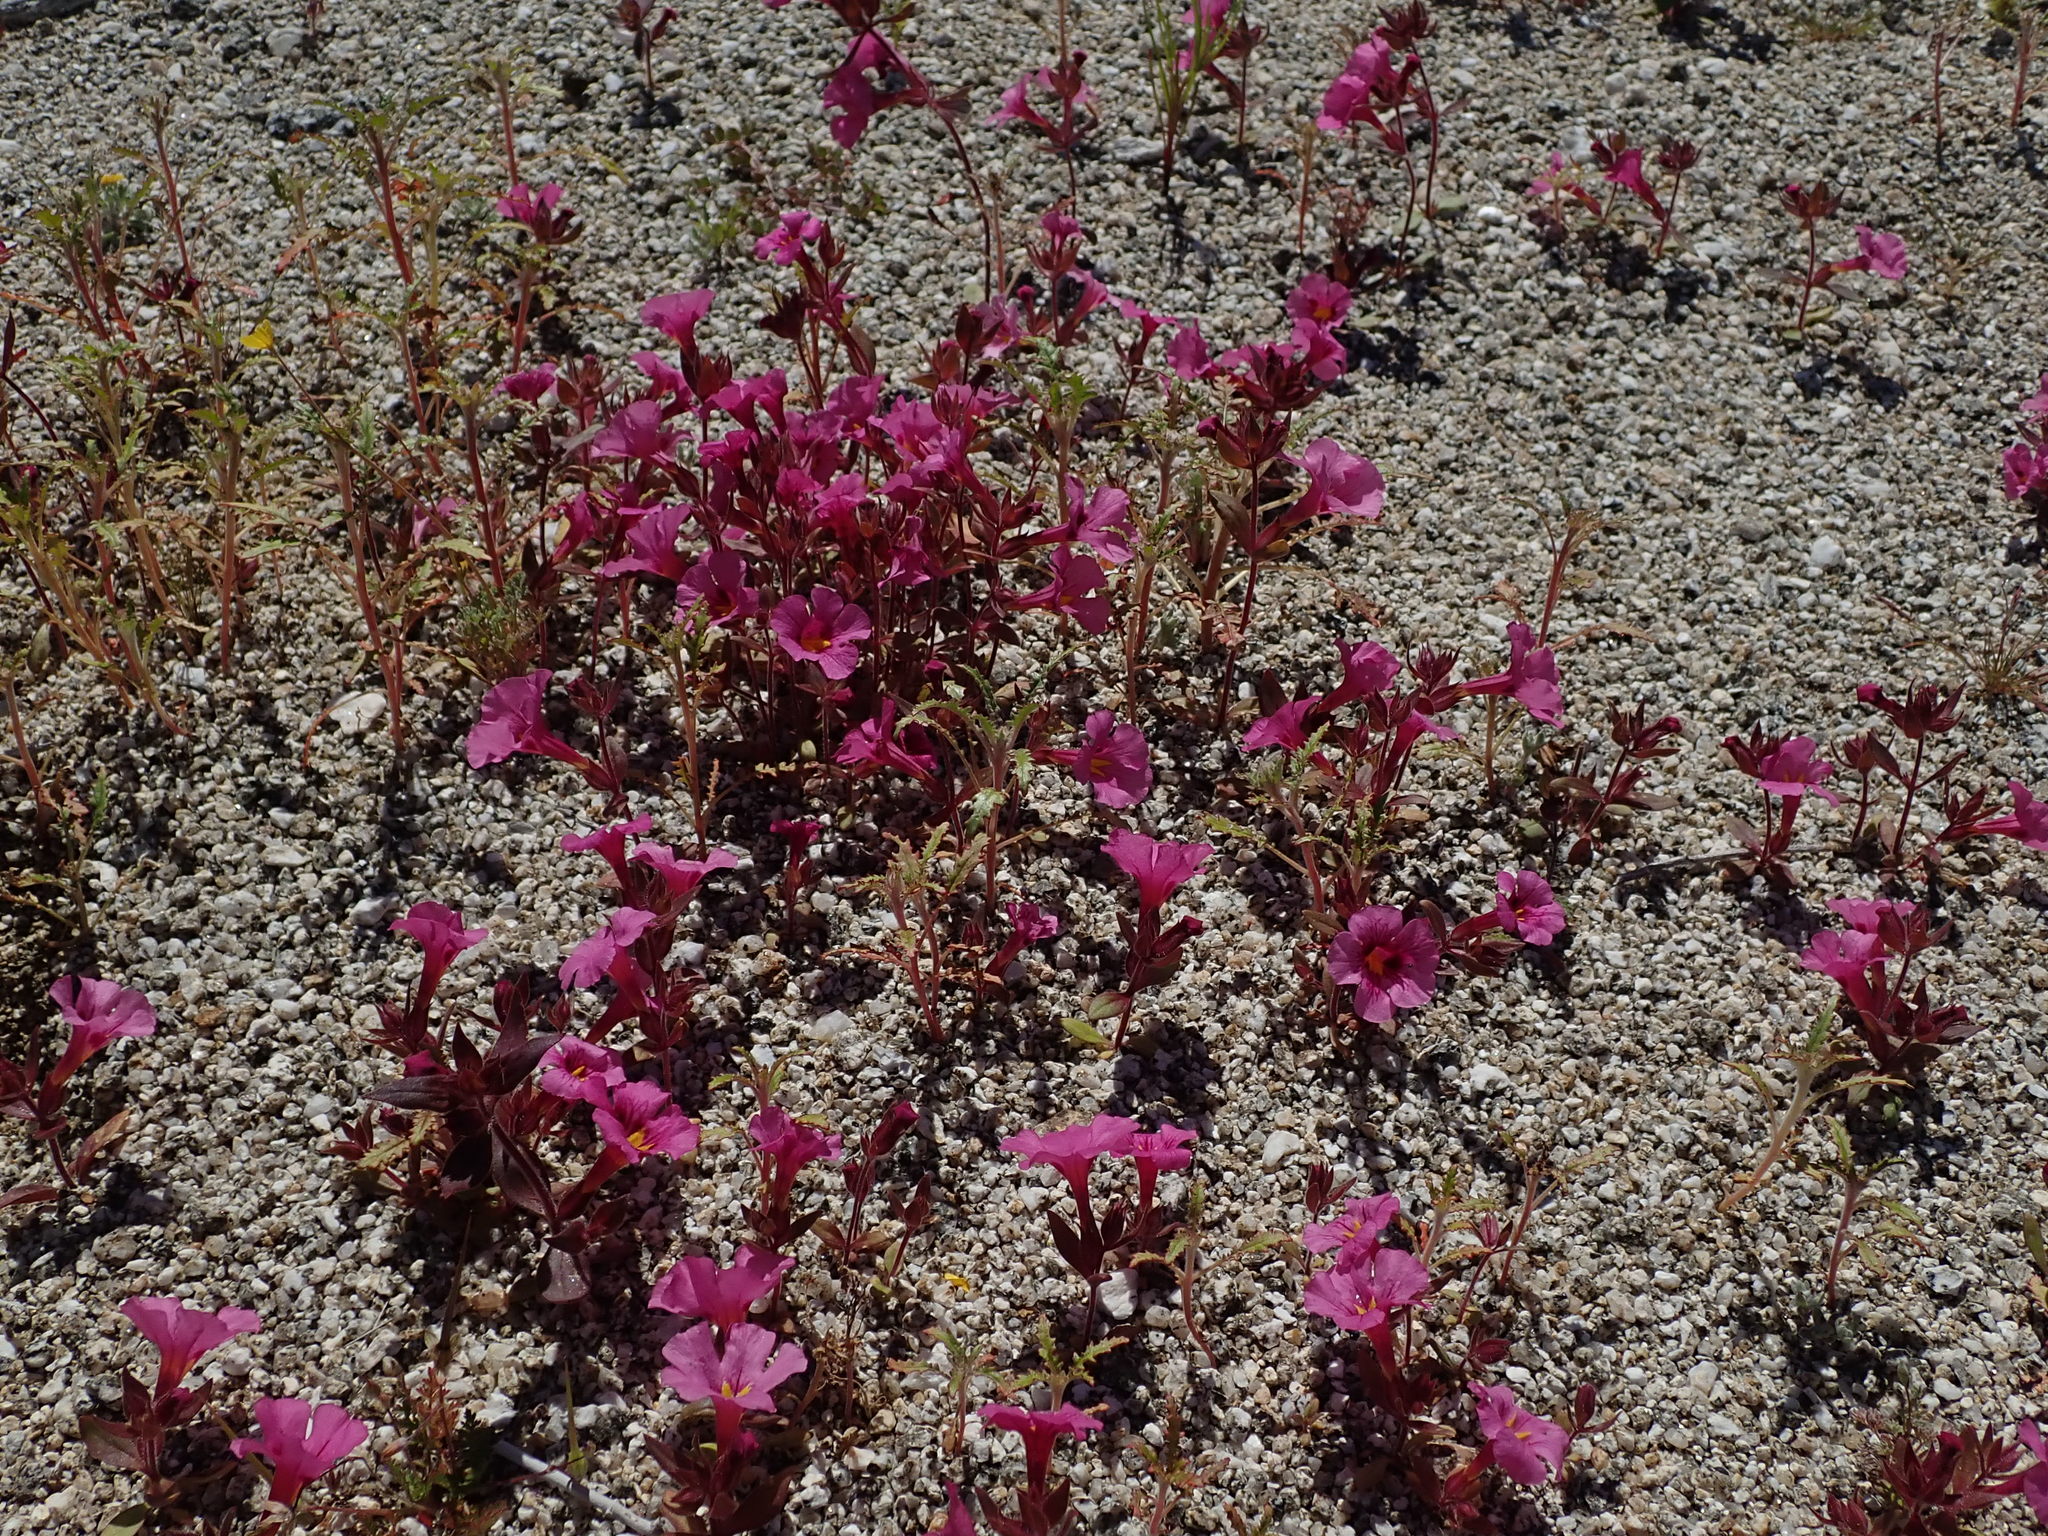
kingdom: Plantae
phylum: Tracheophyta
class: Magnoliopsida
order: Lamiales
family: Phrymaceae
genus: Diplacus
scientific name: Diplacus bigelovii
